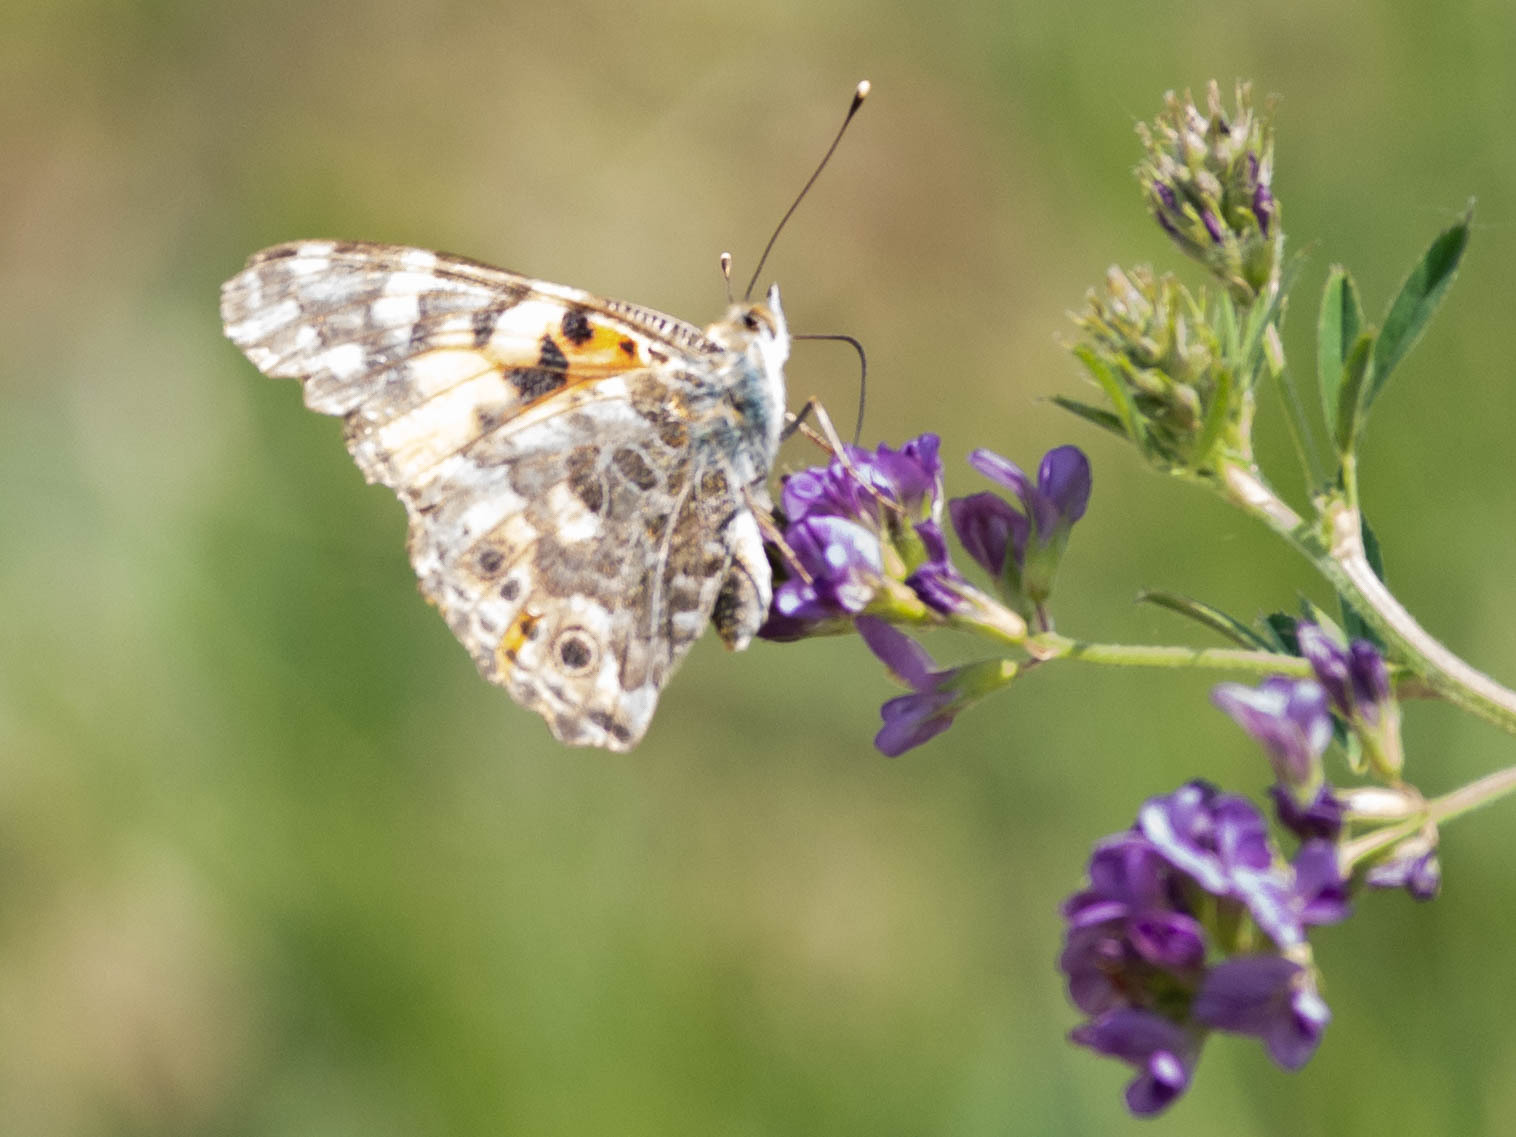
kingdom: Animalia
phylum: Arthropoda
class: Insecta
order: Lepidoptera
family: Nymphalidae
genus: Vanessa
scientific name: Vanessa cardui
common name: Painted lady
